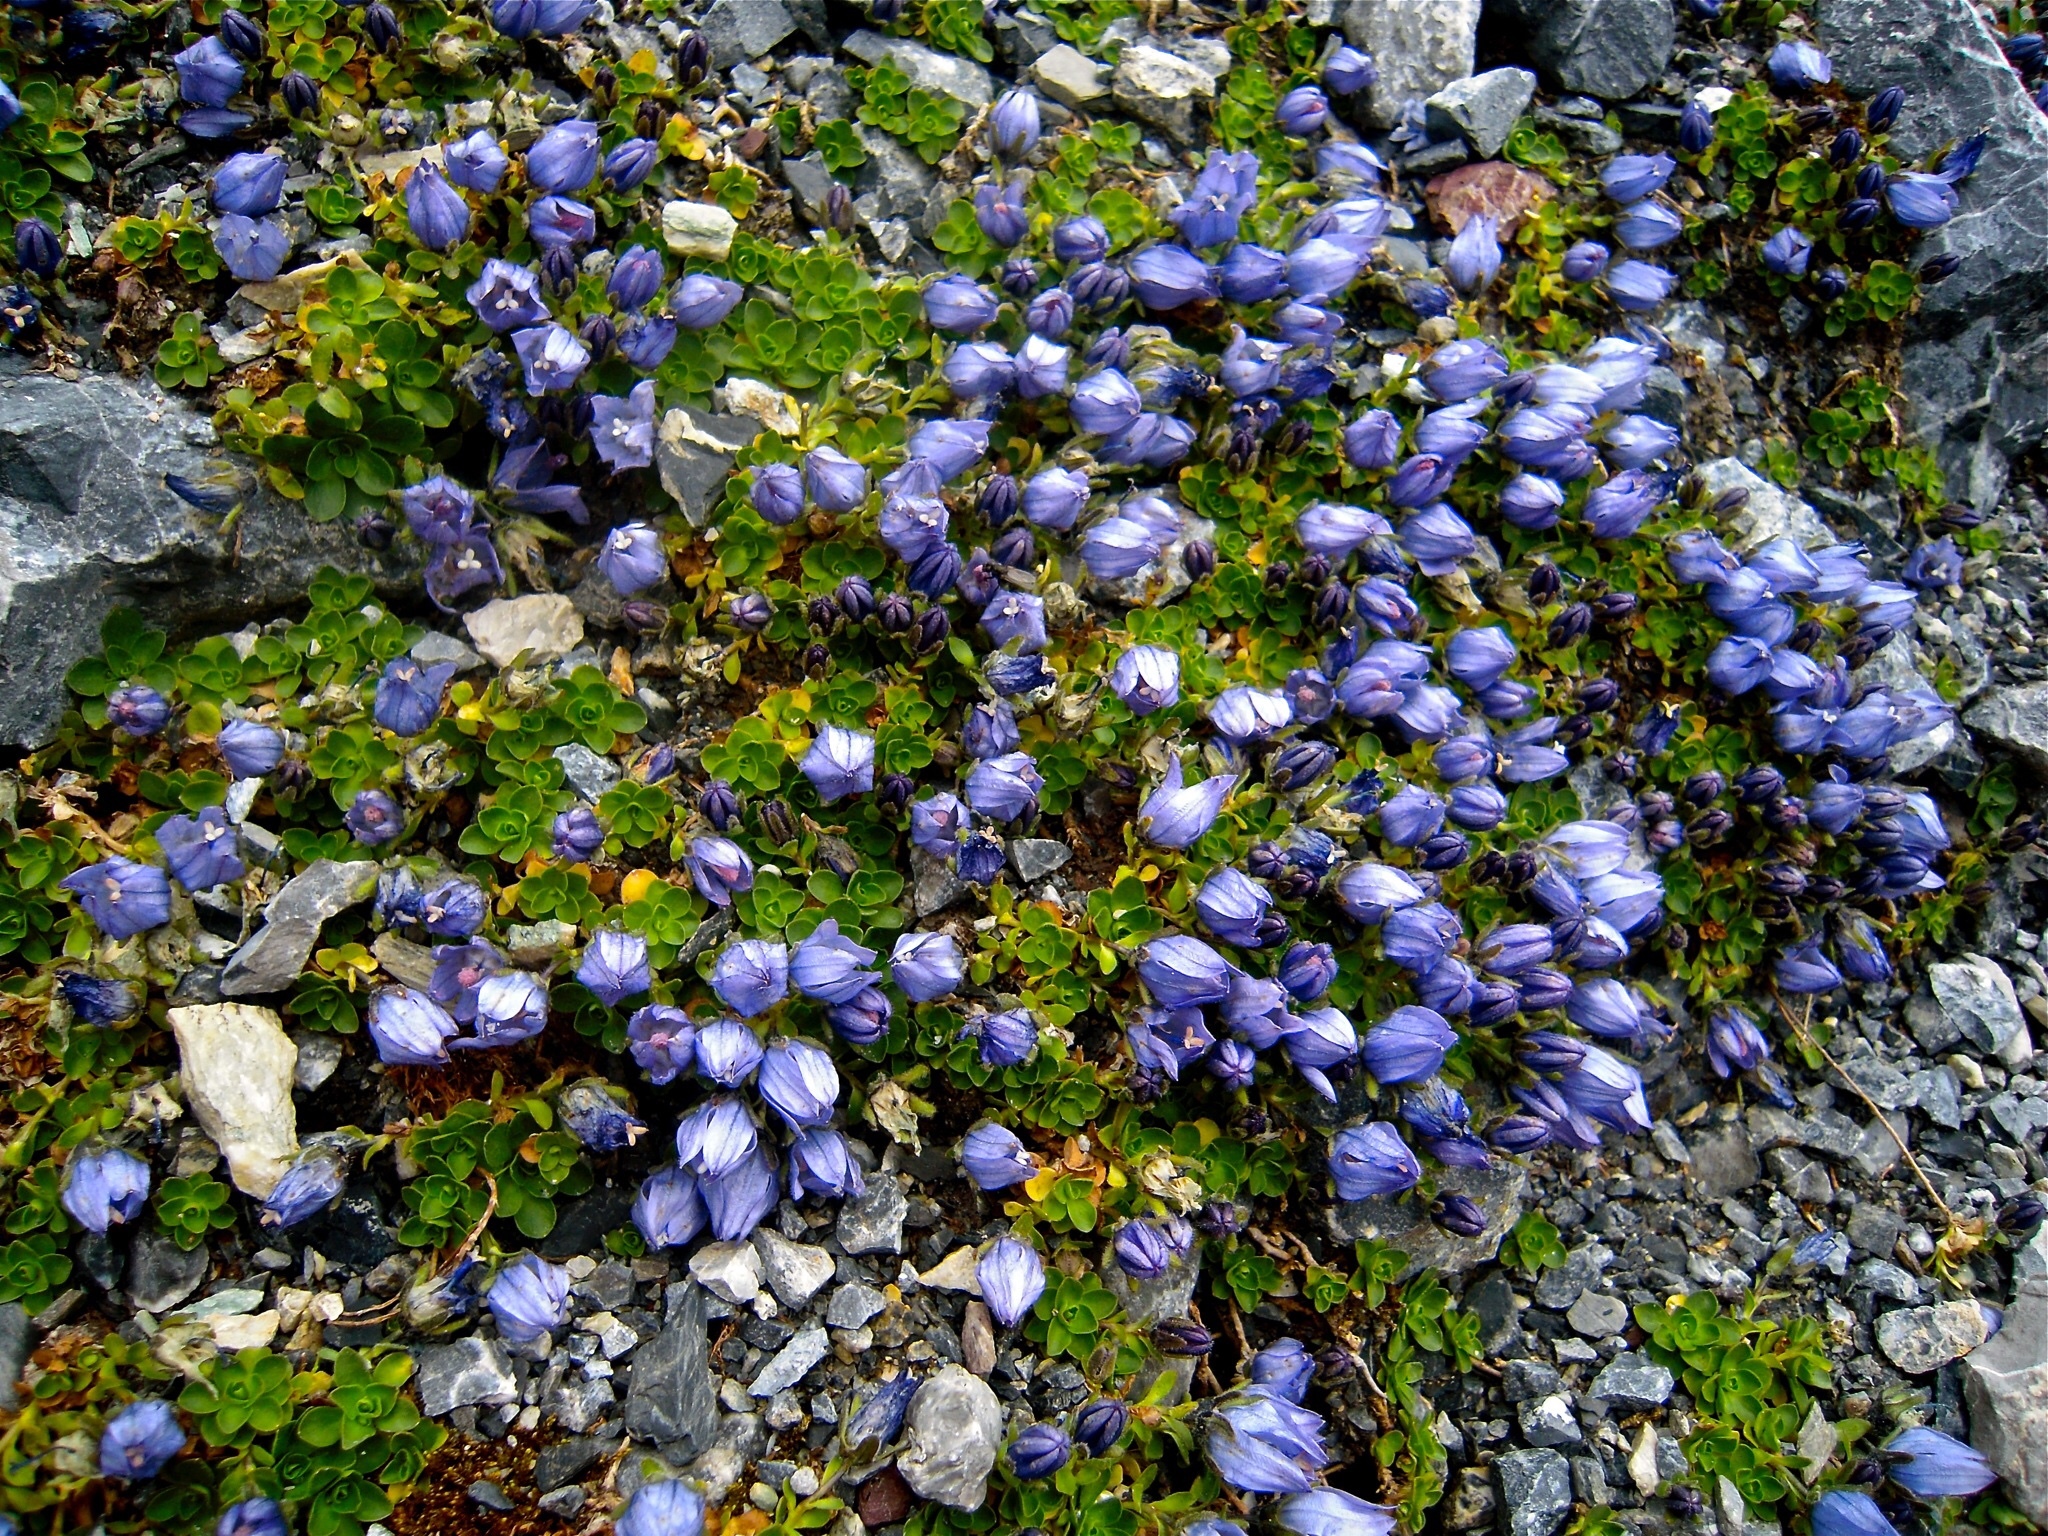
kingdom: Plantae
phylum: Tracheophyta
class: Magnoliopsida
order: Asterales
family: Campanulaceae
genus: Campanula
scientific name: Campanula cenisia
